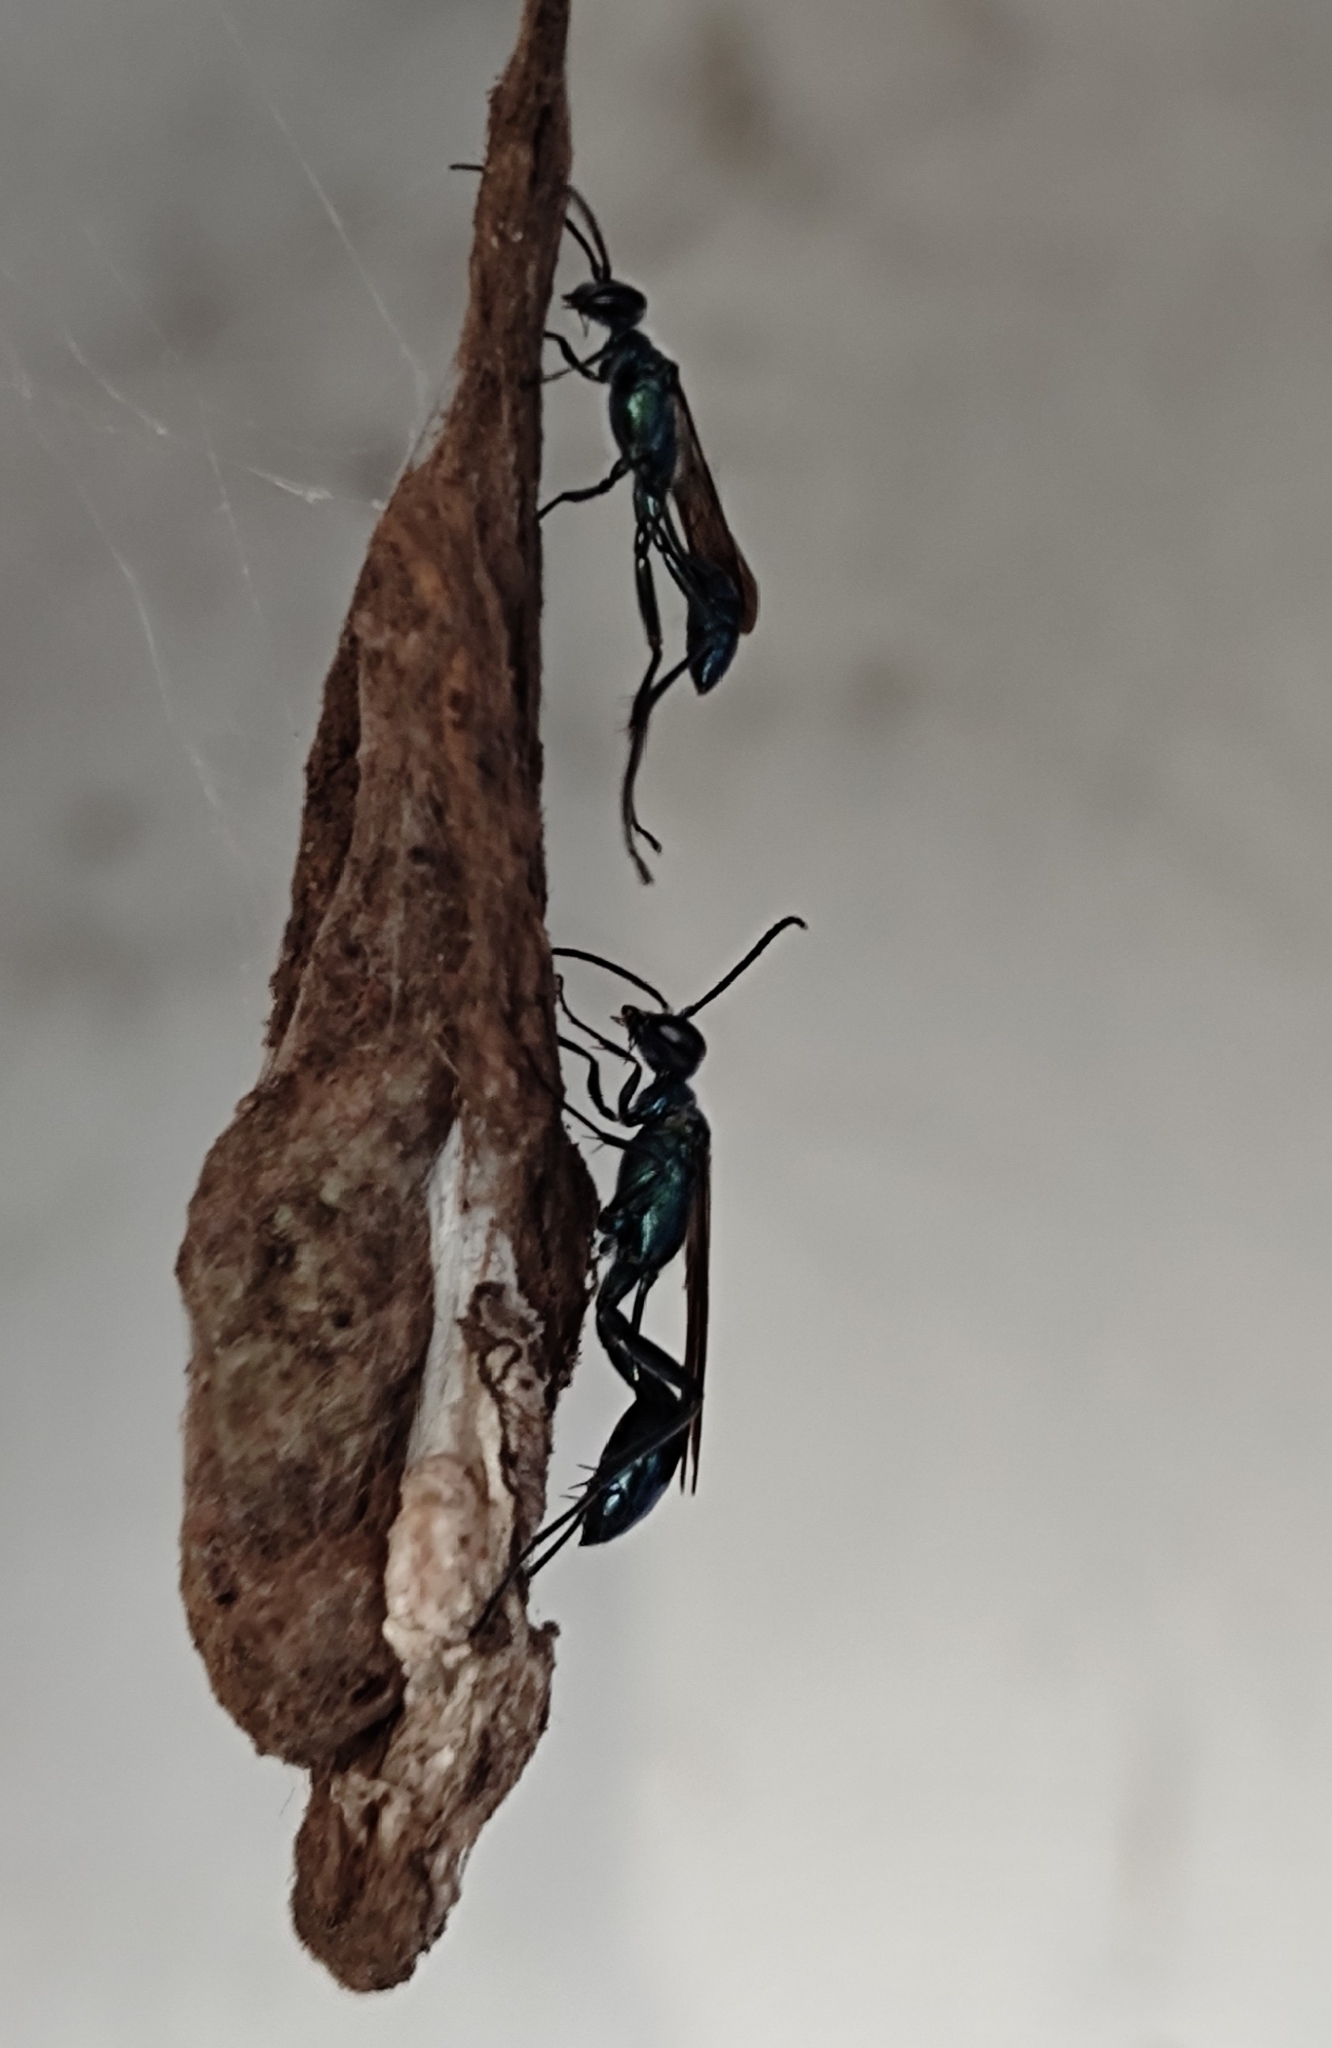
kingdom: Animalia
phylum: Arthropoda
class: Insecta
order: Hymenoptera
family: Sphecidae
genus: Chalybion
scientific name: Chalybion bengalense
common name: Mud dauber
